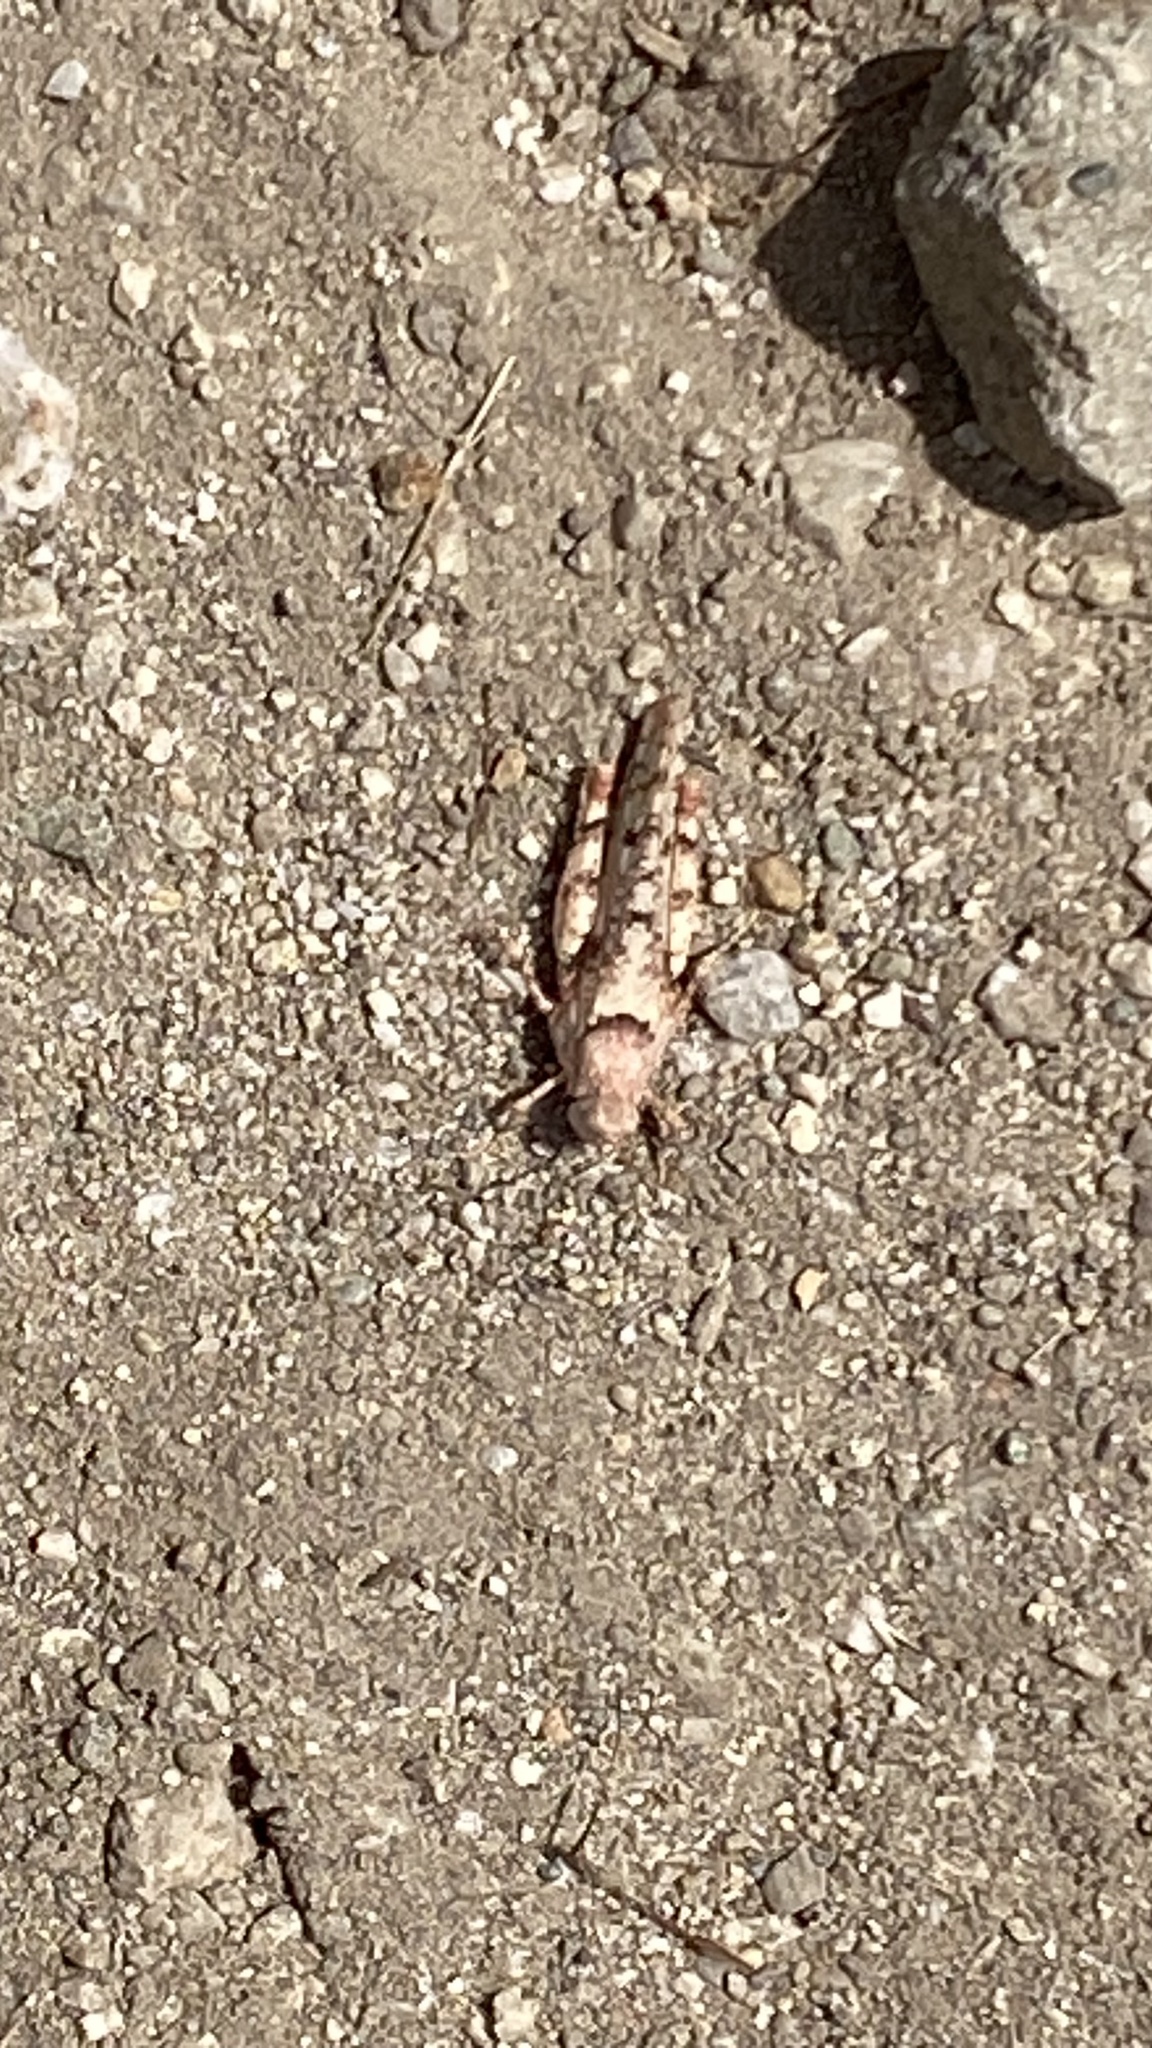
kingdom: Animalia
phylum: Arthropoda
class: Insecta
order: Orthoptera
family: Acrididae
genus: Cibolacris
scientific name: Cibolacris parviceps
